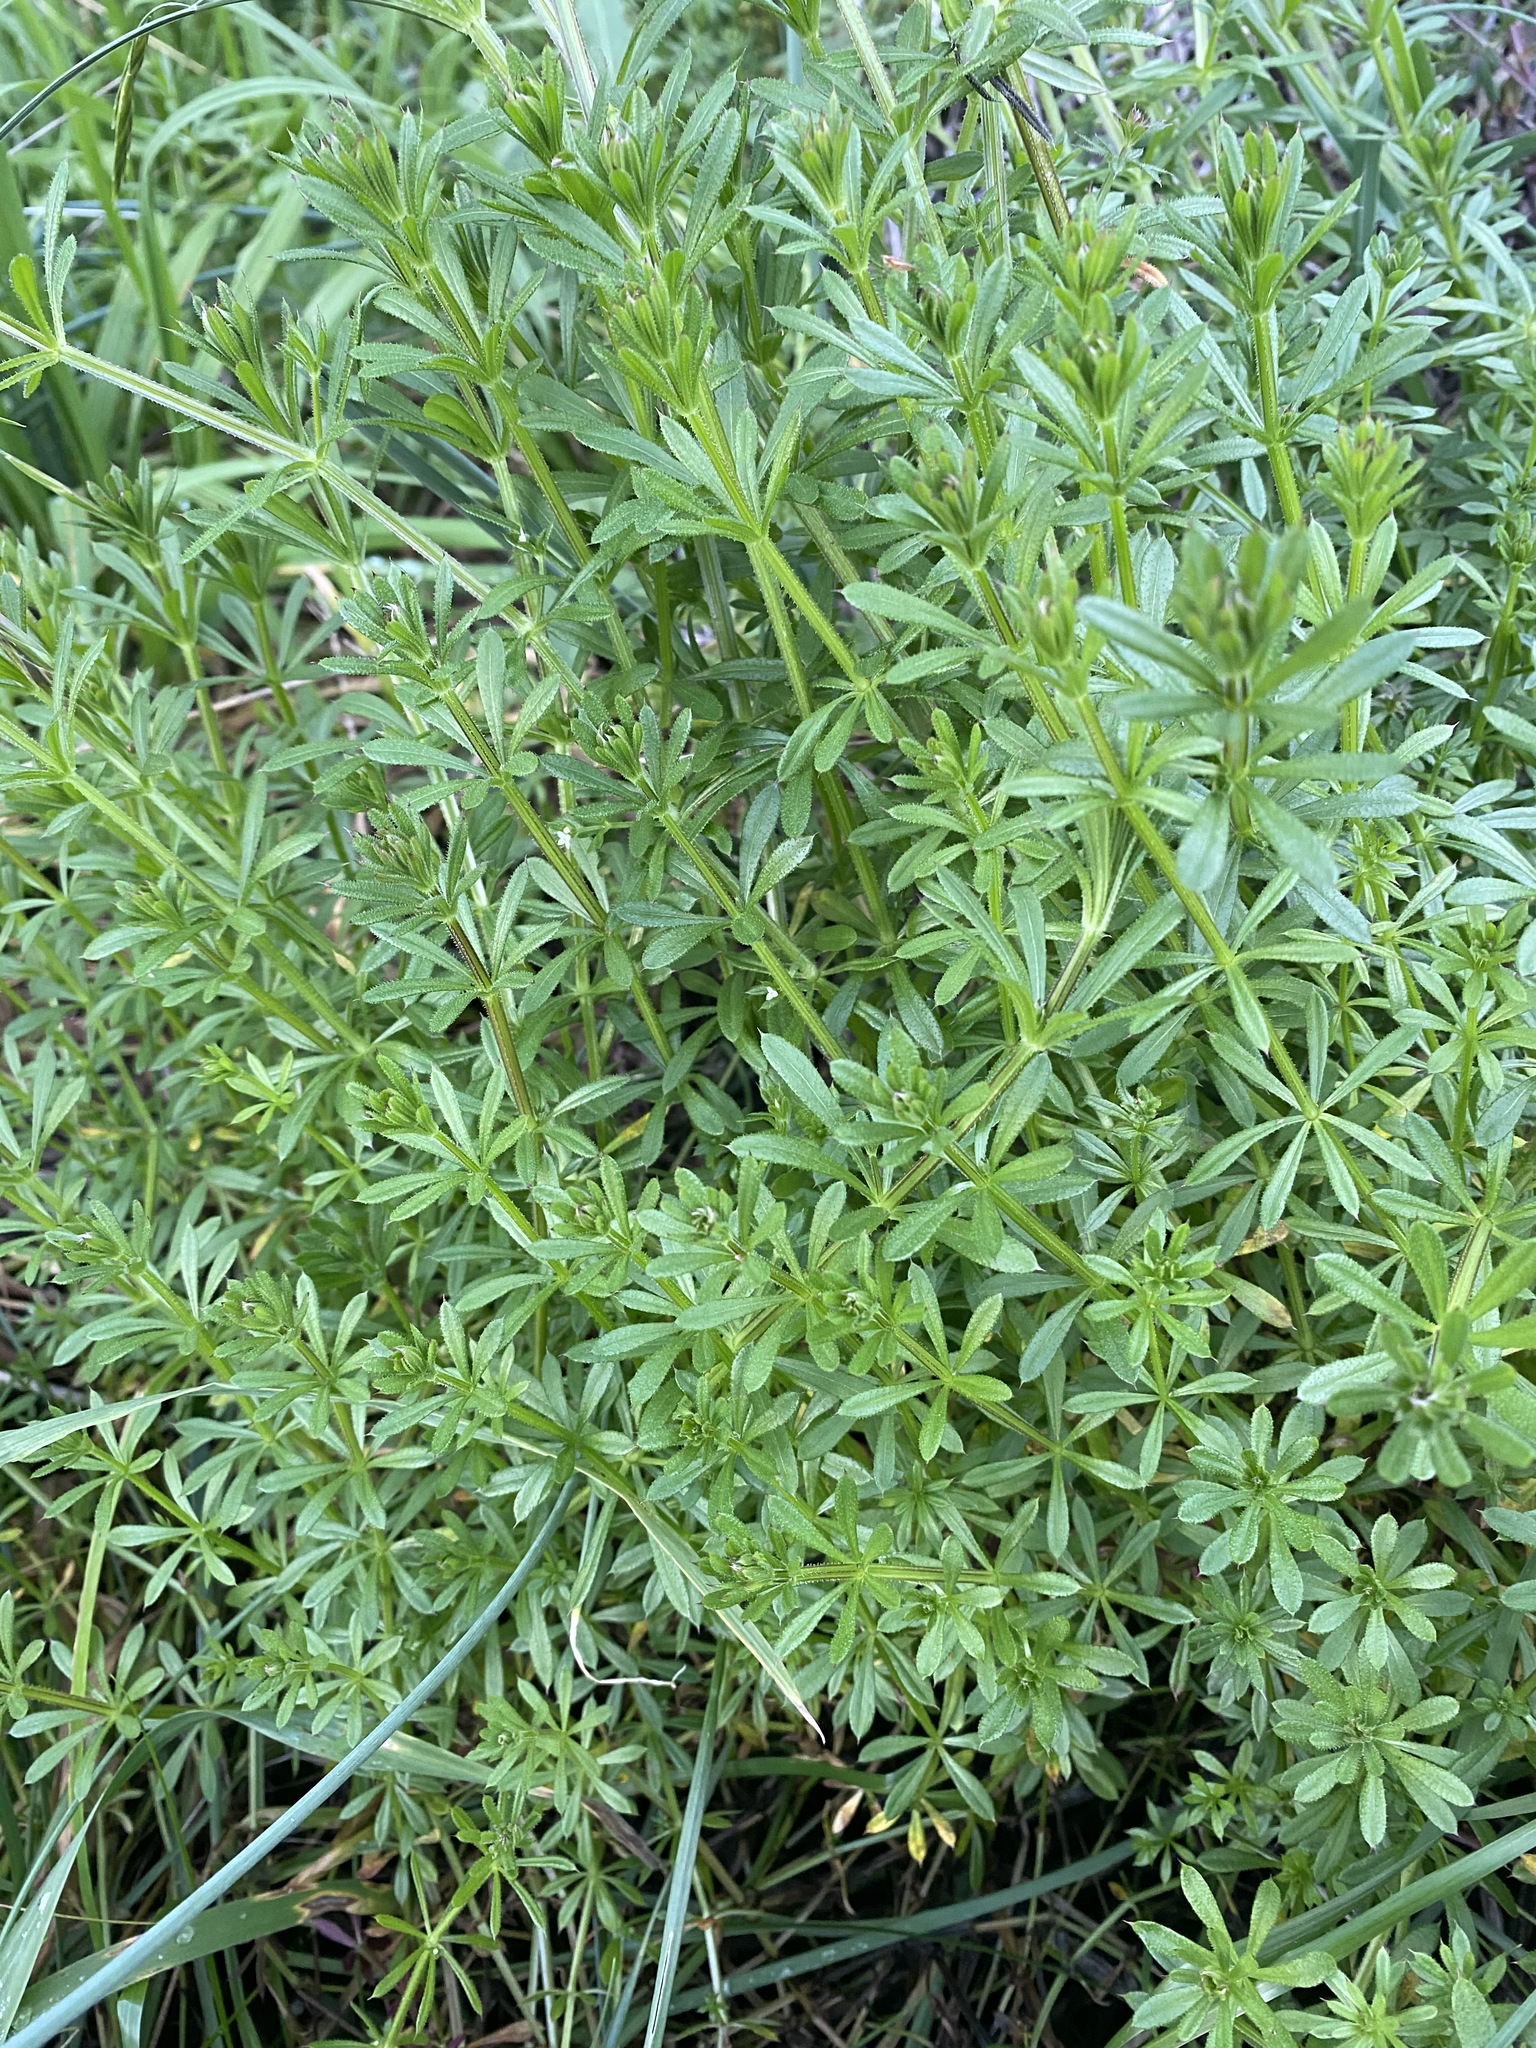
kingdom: Plantae
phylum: Tracheophyta
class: Magnoliopsida
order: Gentianales
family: Rubiaceae
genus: Galium
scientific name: Galium aparine
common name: Cleavers
